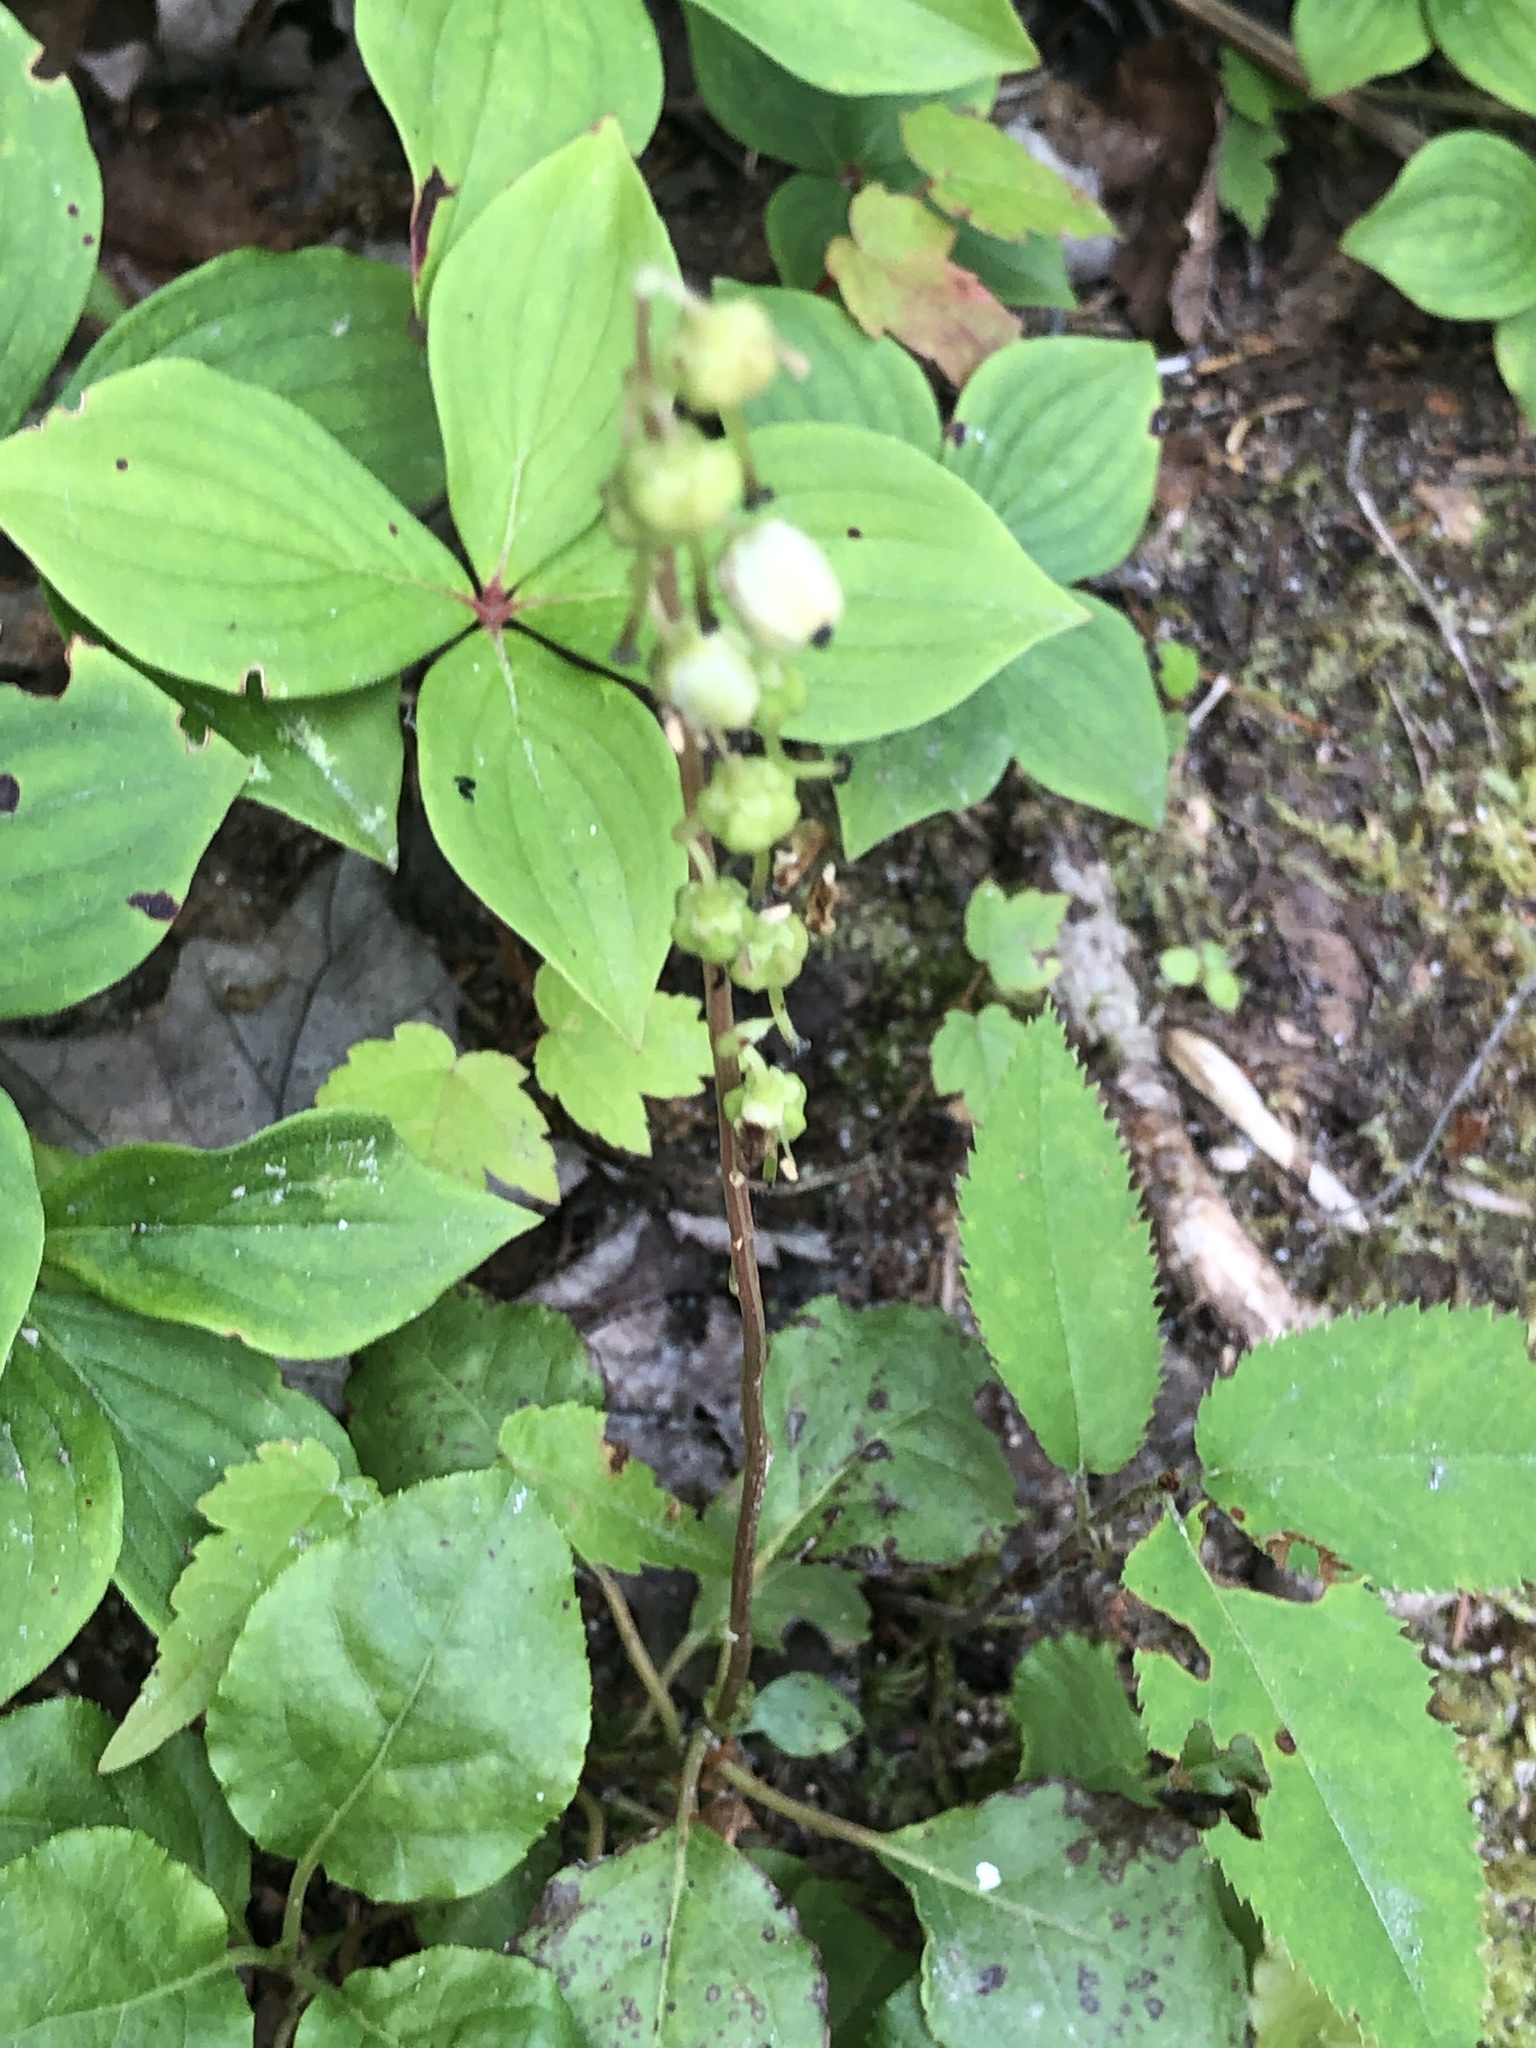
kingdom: Plantae
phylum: Tracheophyta
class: Magnoliopsida
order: Ericales
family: Ericaceae
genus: Orthilia
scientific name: Orthilia secunda
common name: One-sided orthilia
